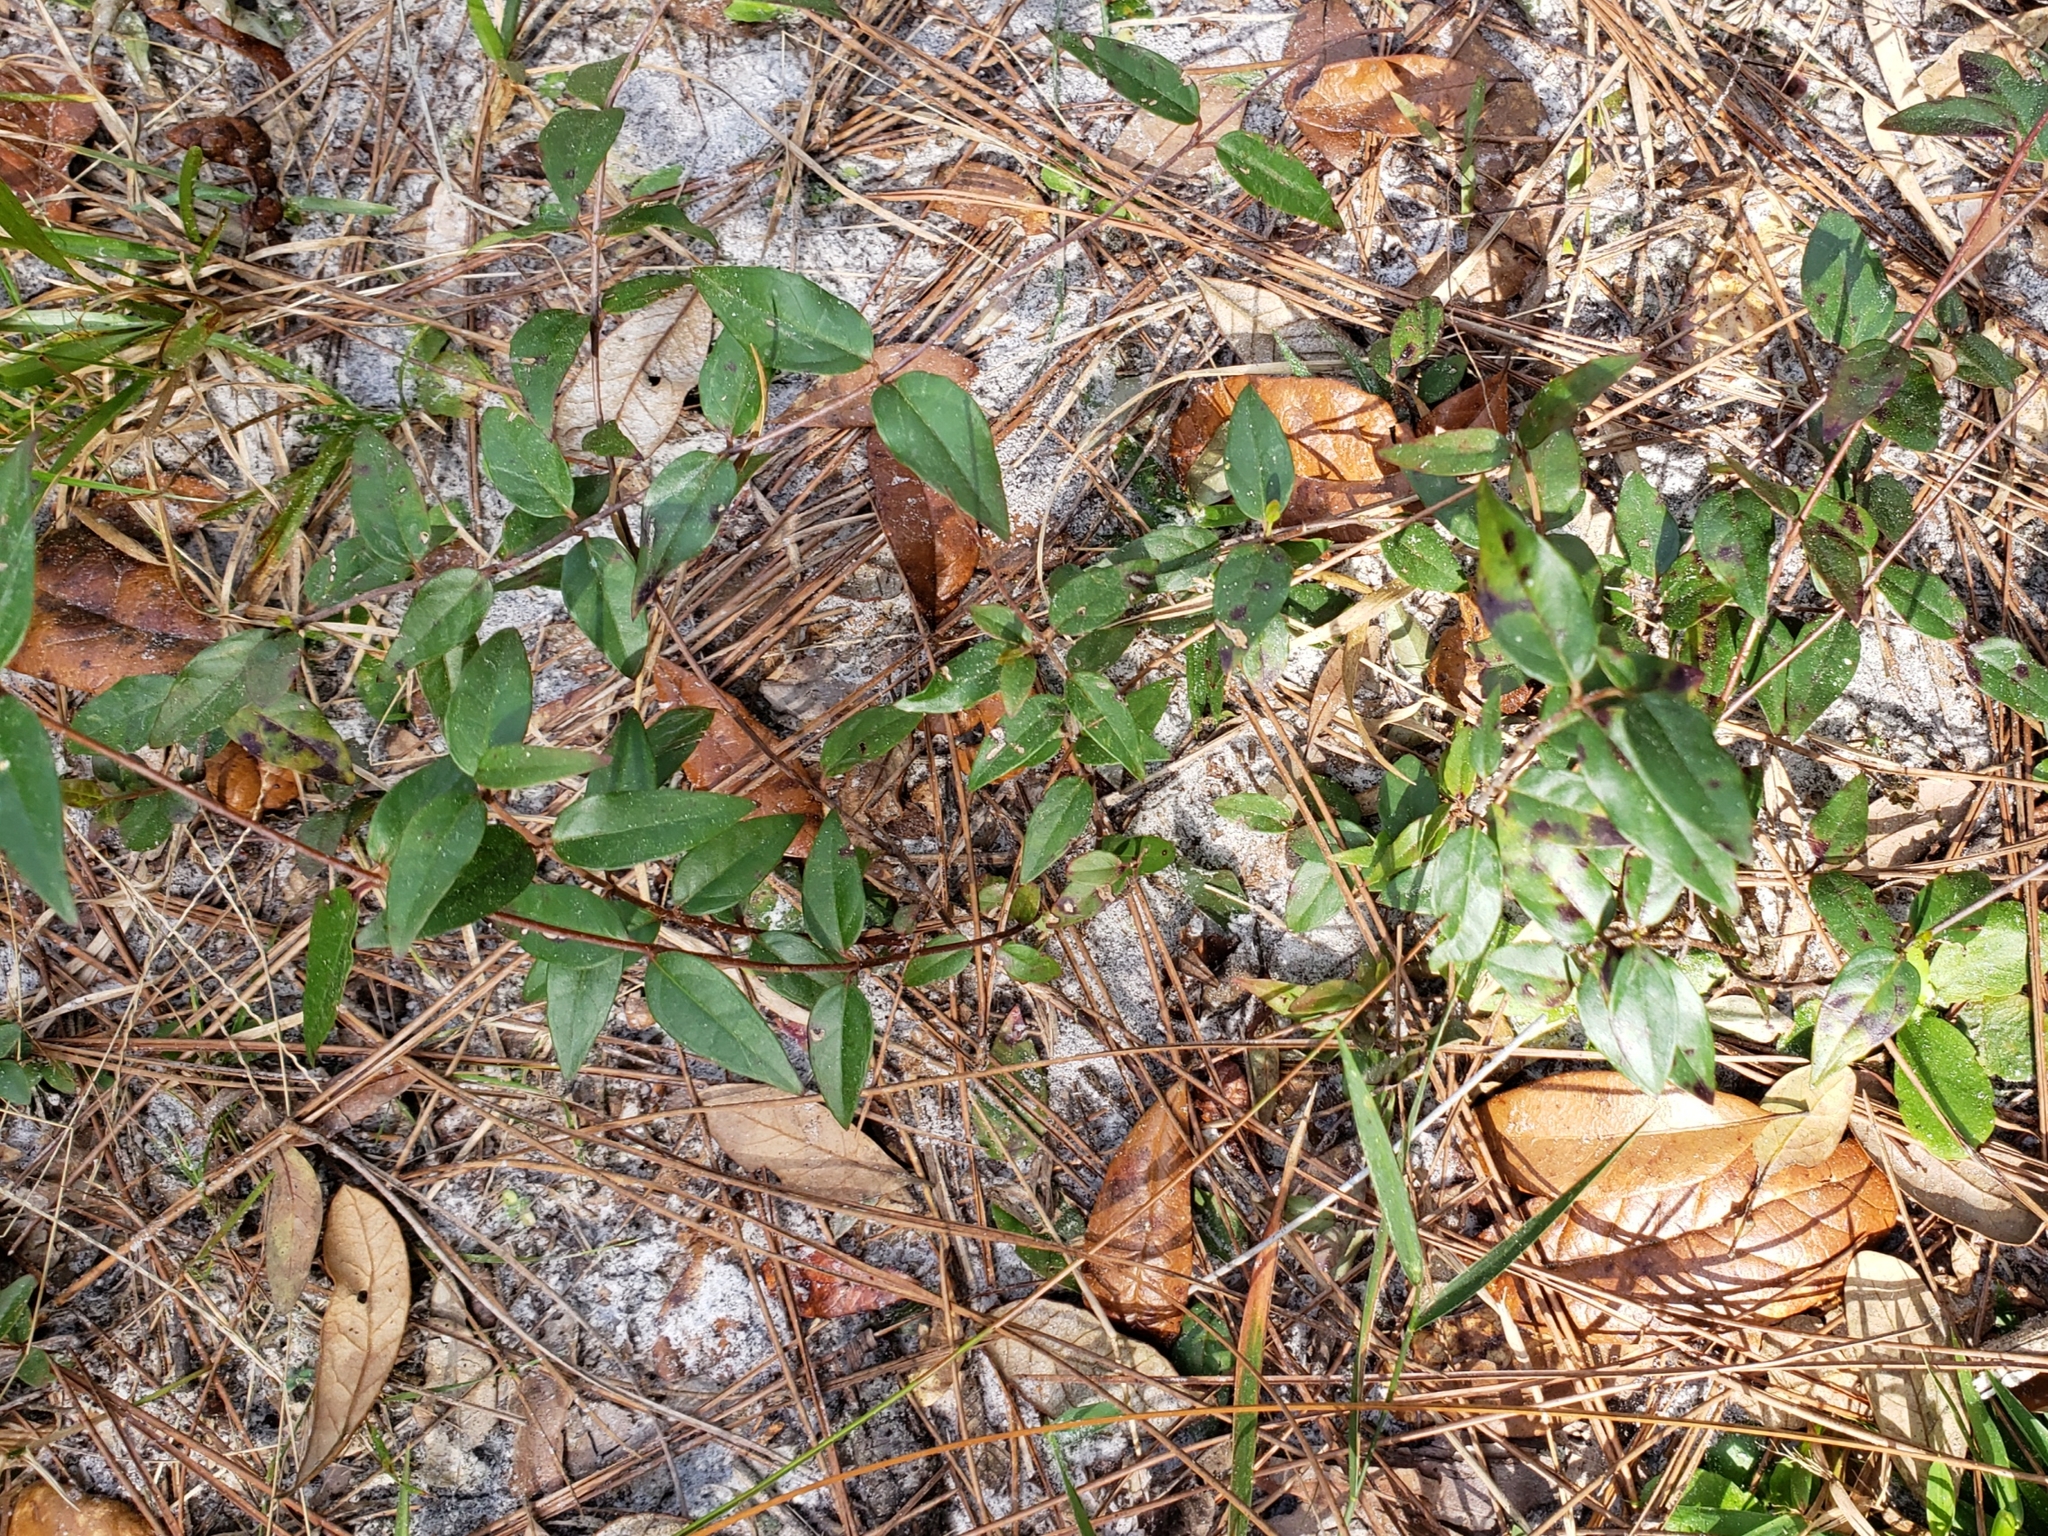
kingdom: Plantae
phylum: Tracheophyta
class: Magnoliopsida
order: Gentianales
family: Gelsemiaceae
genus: Gelsemium
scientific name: Gelsemium sempervirens
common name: Carolina-jasmine
